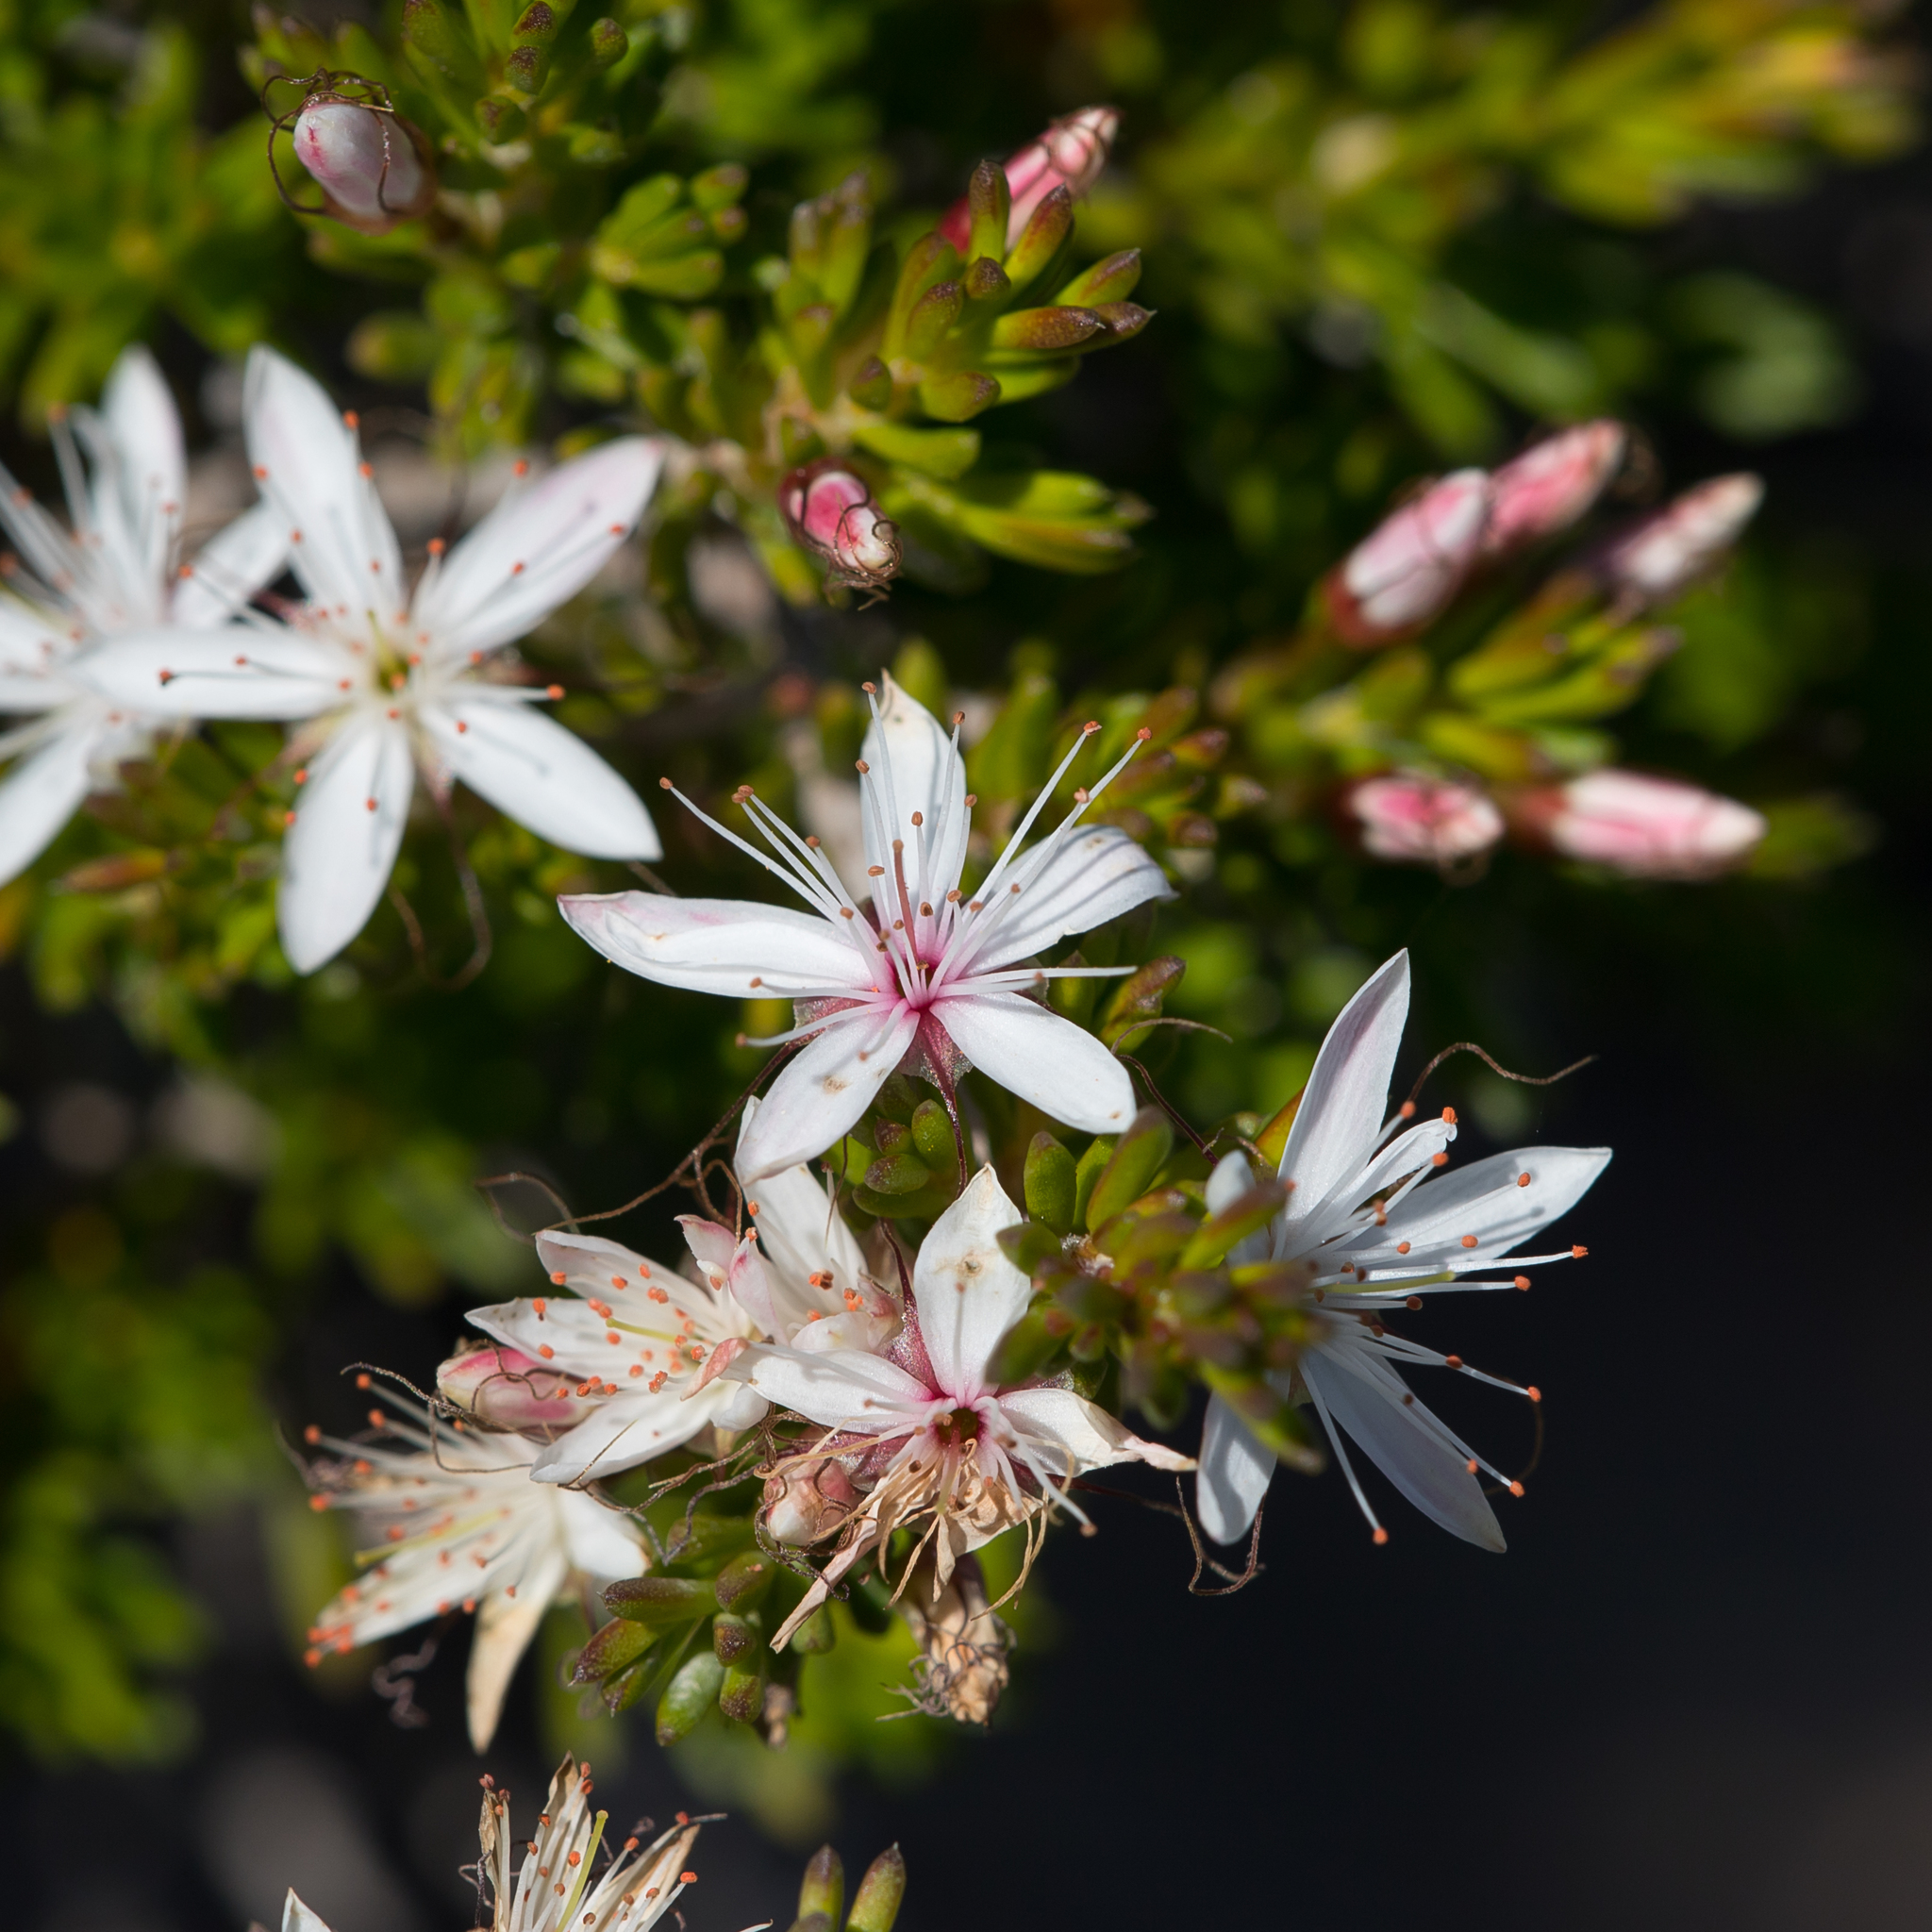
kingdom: Plantae
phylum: Tracheophyta
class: Magnoliopsida
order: Myrtales
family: Myrtaceae
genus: Calytrix
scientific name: Calytrix tetragona
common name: Common fringe myrtle
